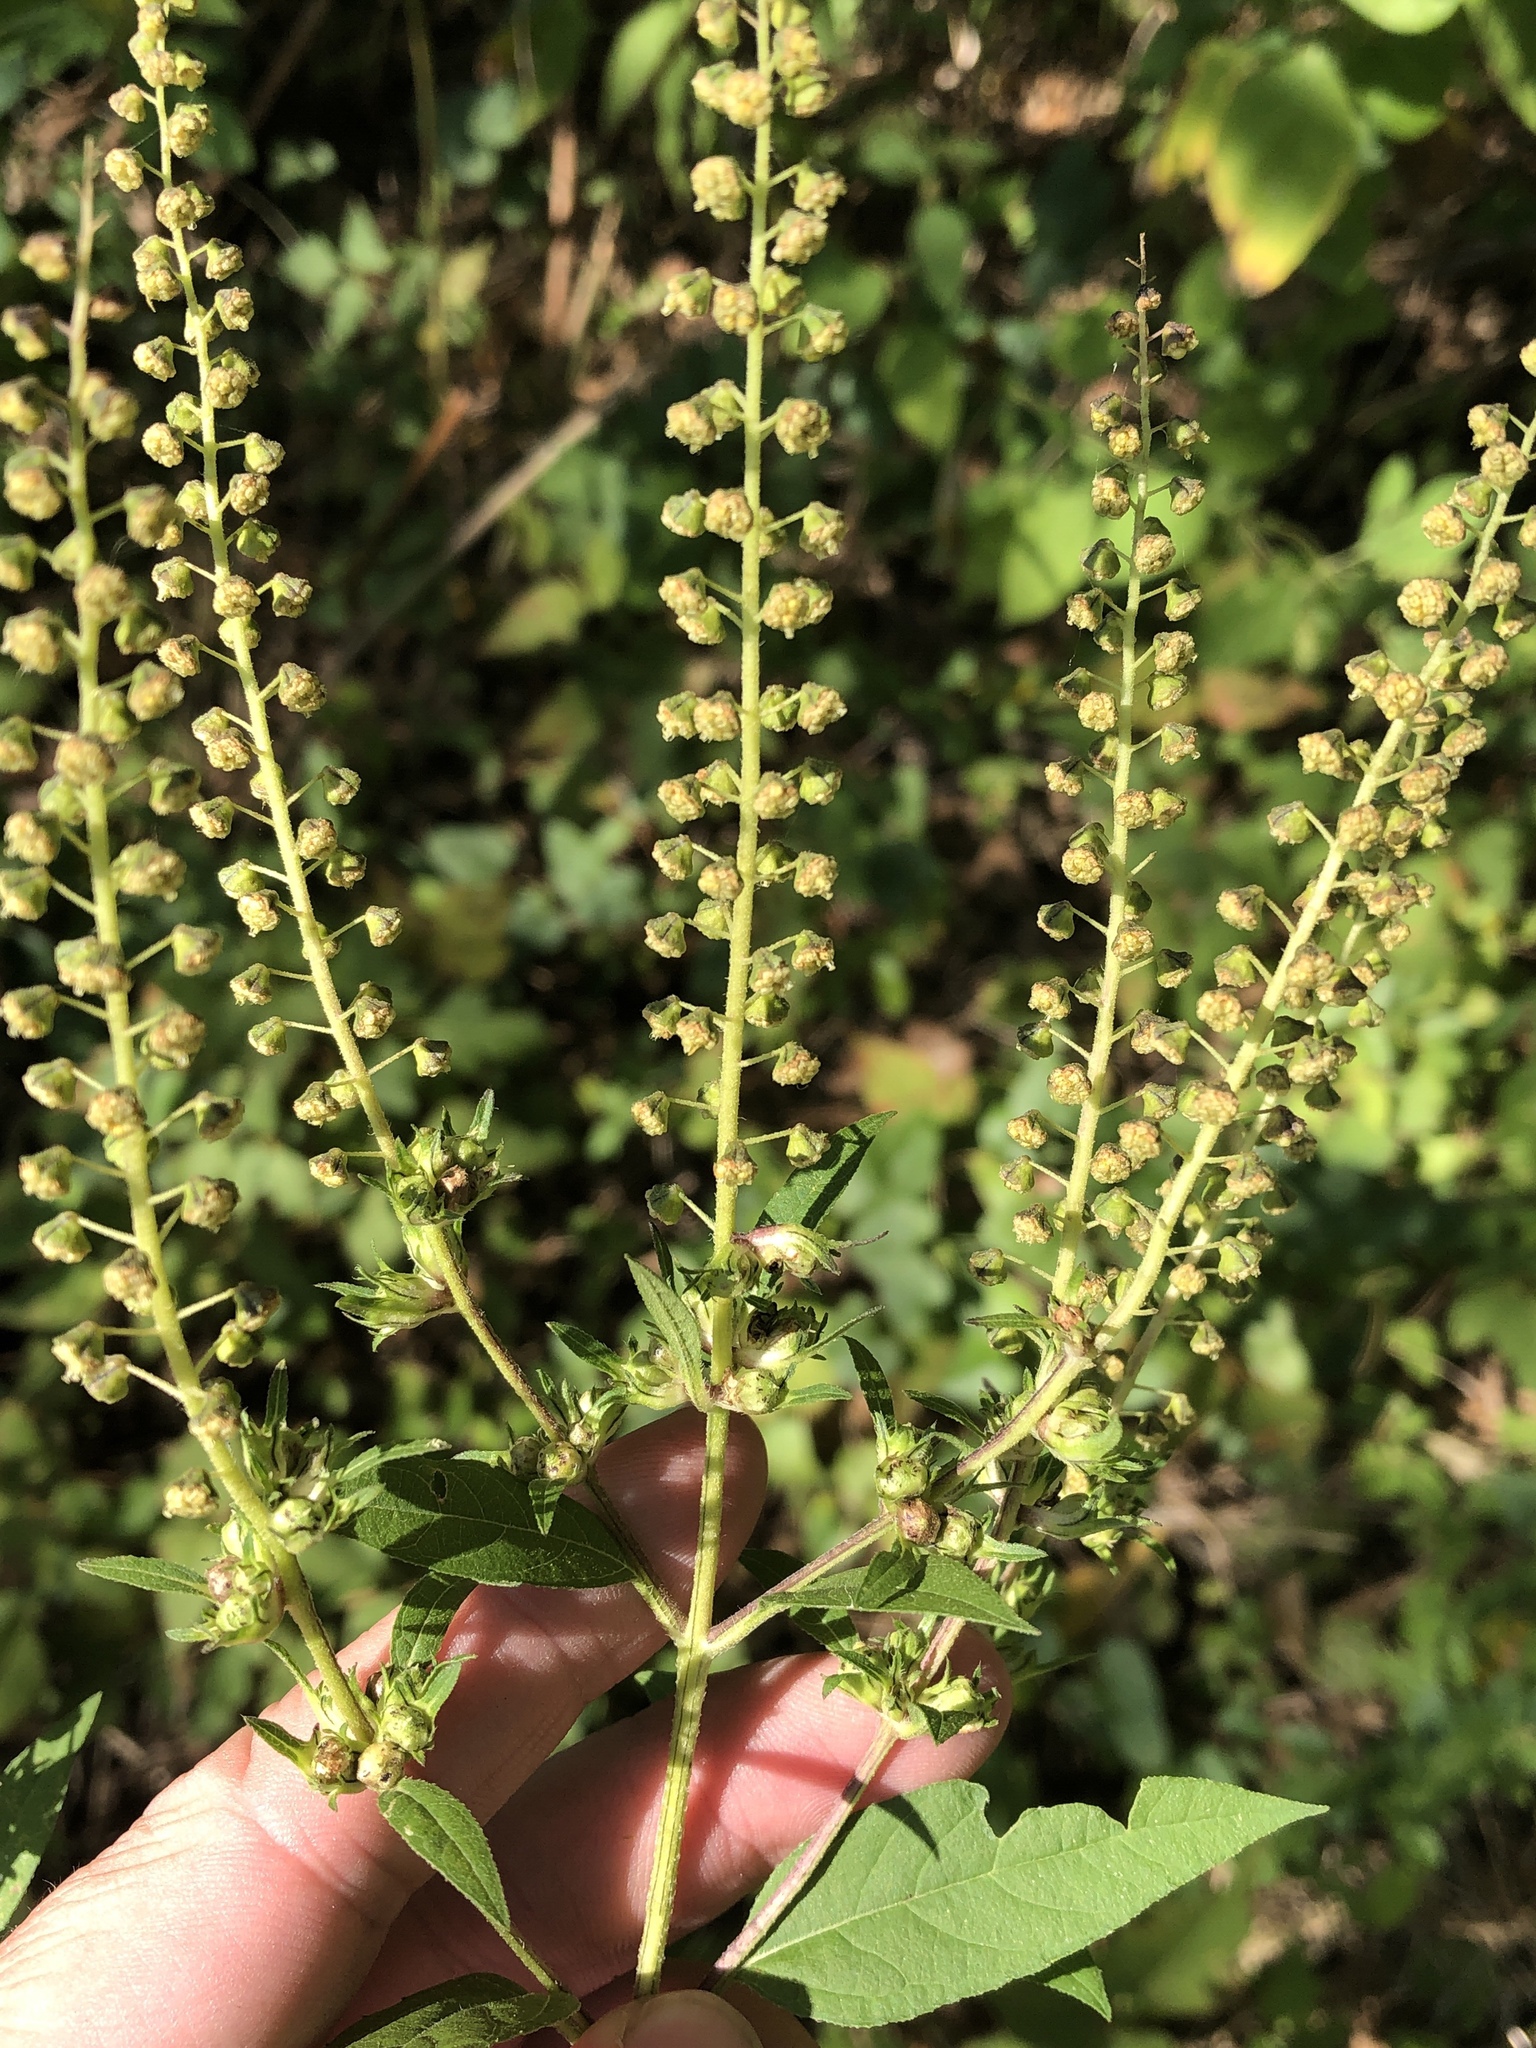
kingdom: Plantae
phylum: Tracheophyta
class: Magnoliopsida
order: Asterales
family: Asteraceae
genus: Ambrosia
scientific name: Ambrosia trifida
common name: Giant ragweed
